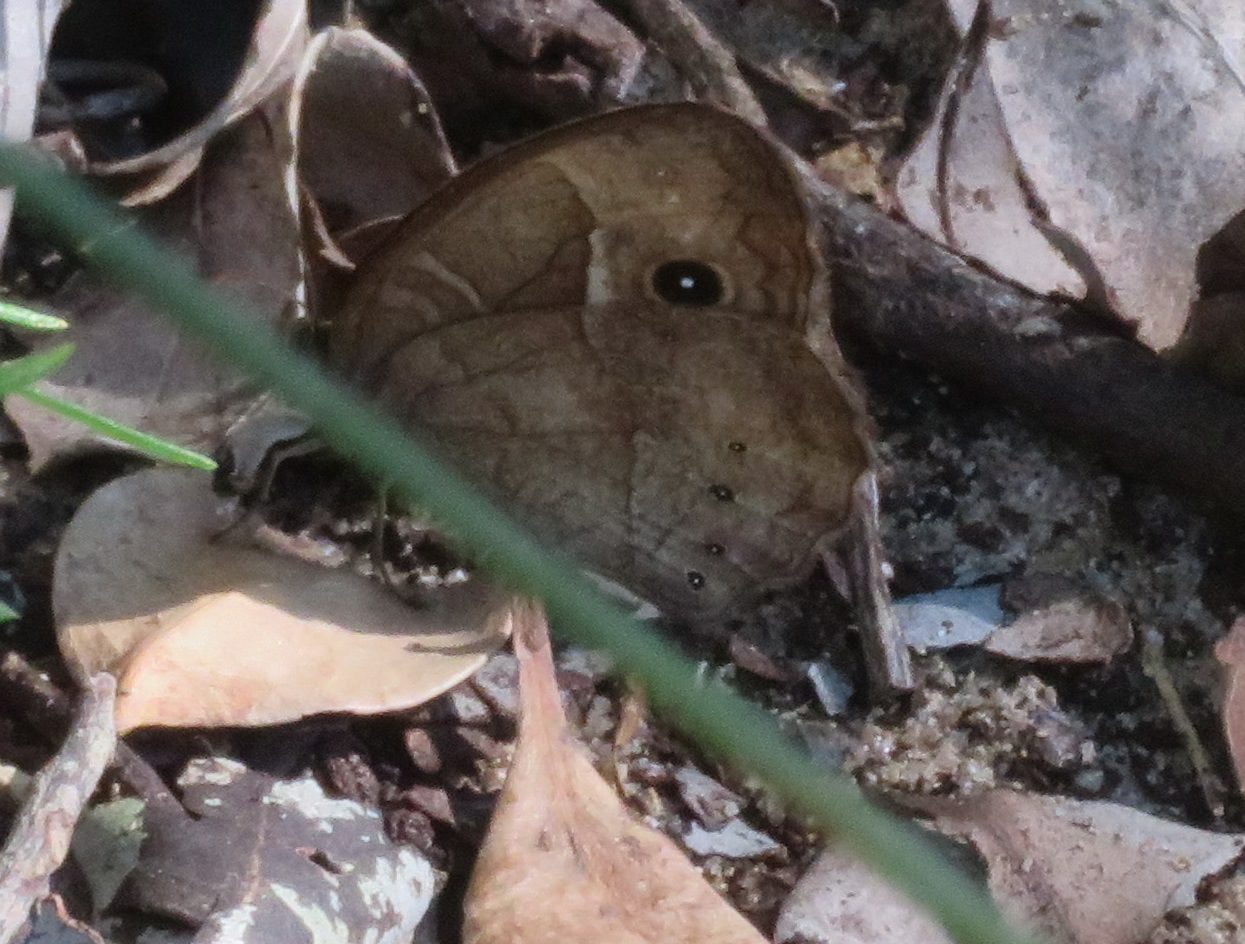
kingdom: Animalia
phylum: Arthropoda
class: Insecta
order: Lepidoptera
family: Nymphalidae
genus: Mycalesis
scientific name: Mycalesis rhacotis
